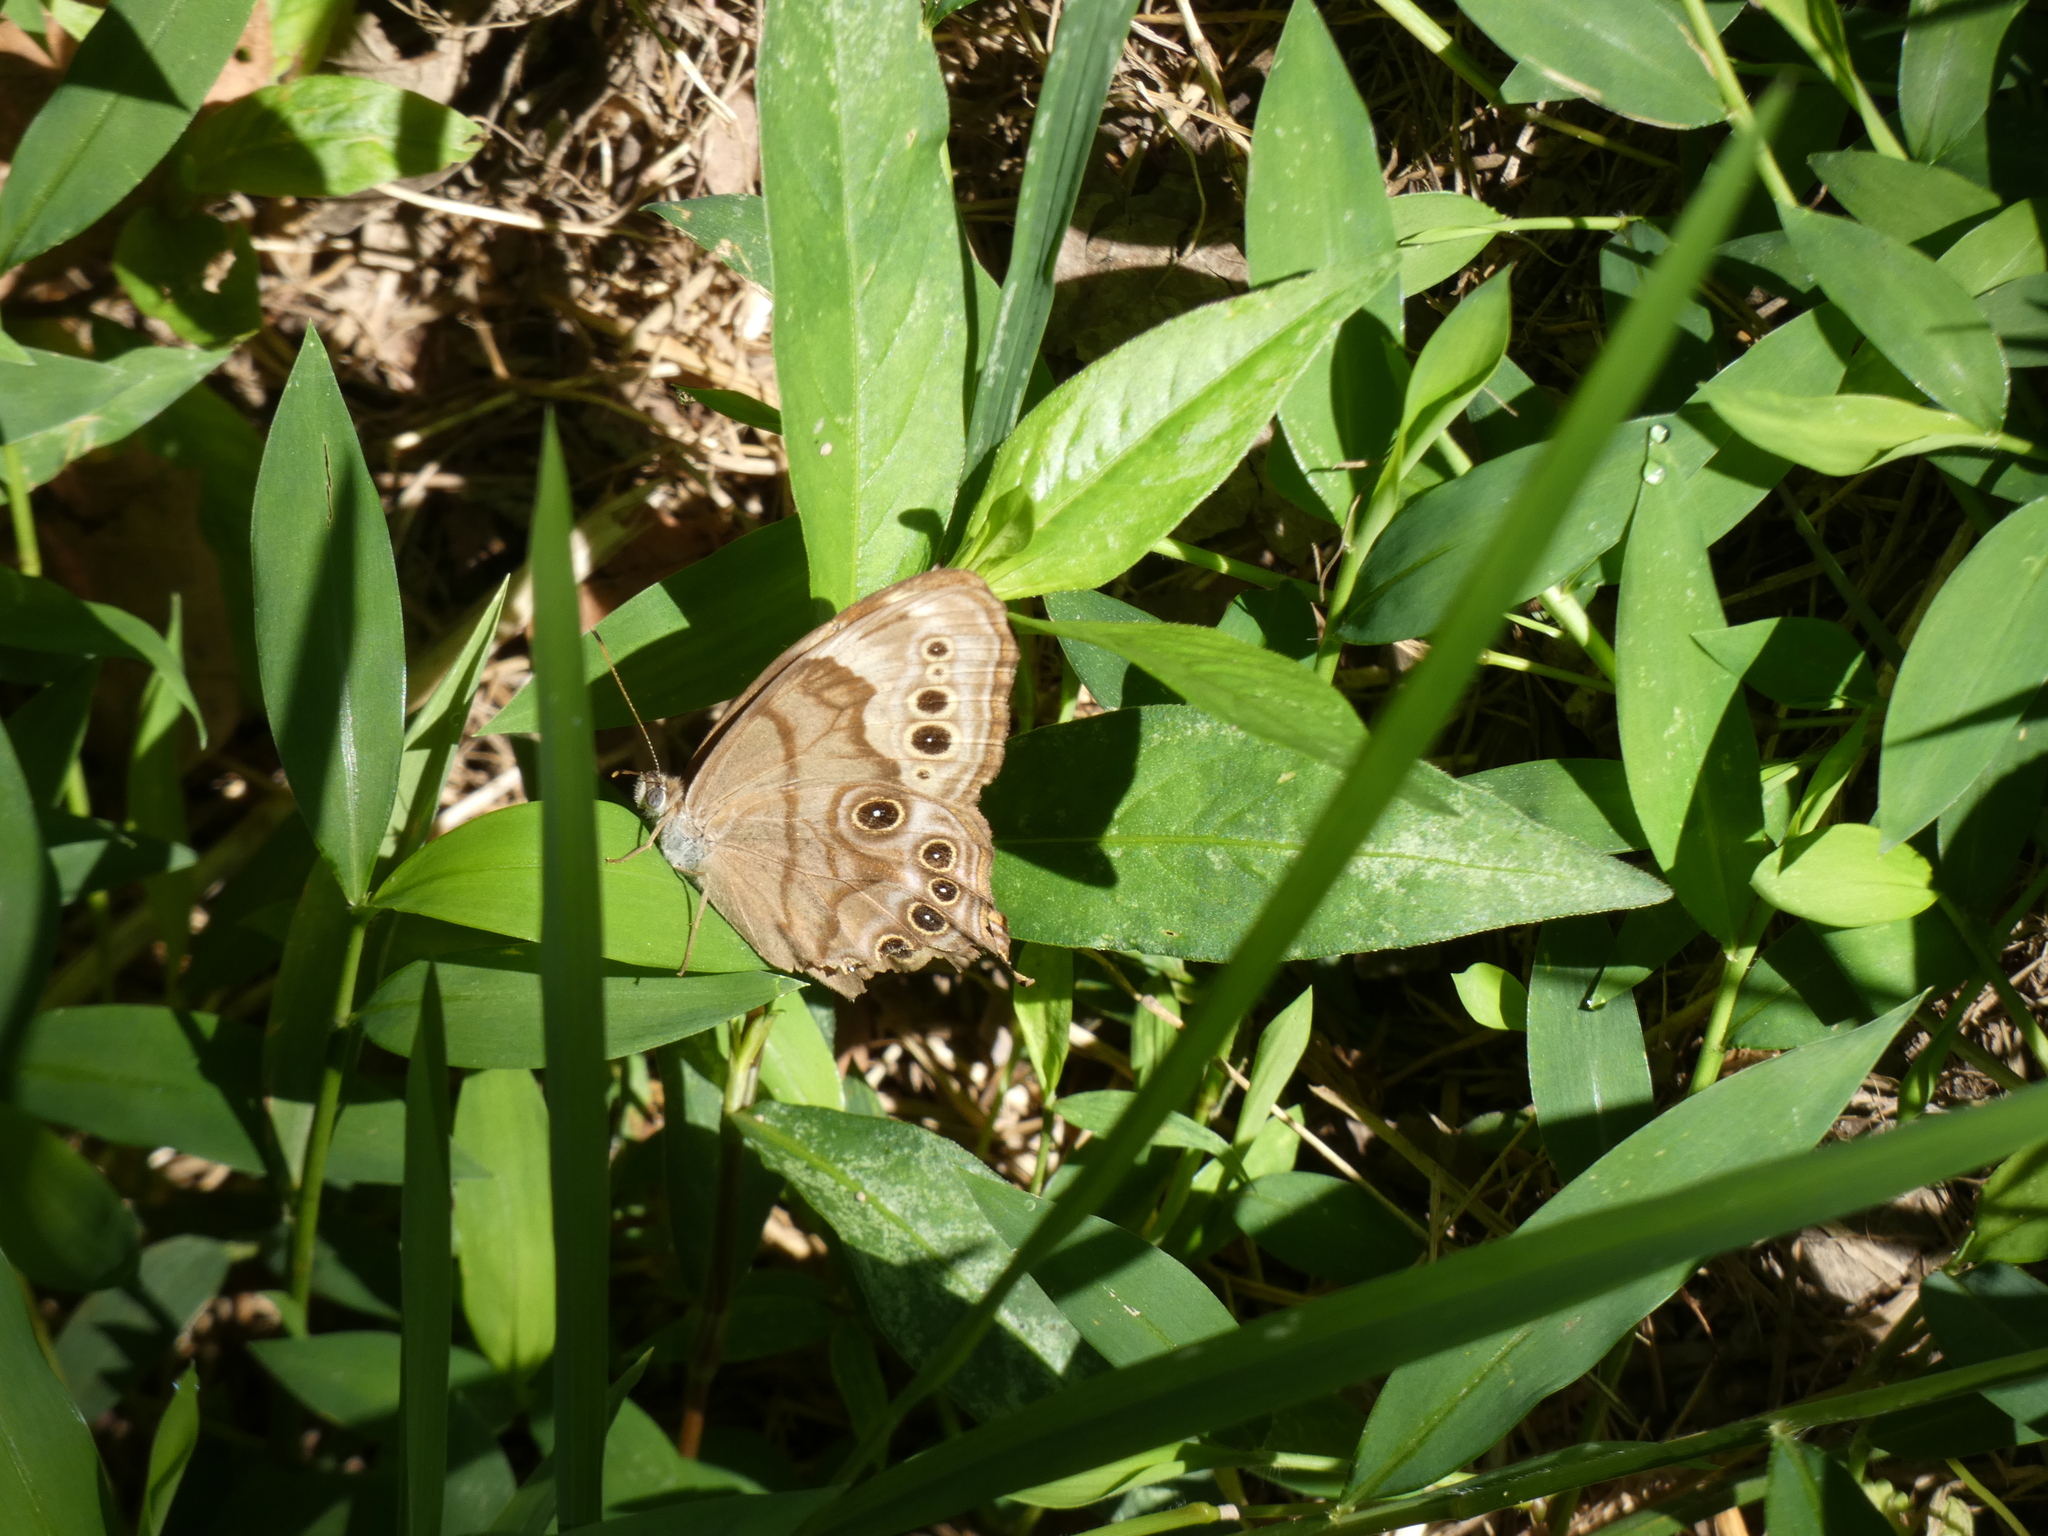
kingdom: Animalia
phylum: Arthropoda
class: Insecta
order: Lepidoptera
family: Nymphalidae
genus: Lethe
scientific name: Lethe anthedon
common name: Northern pearly-eye
